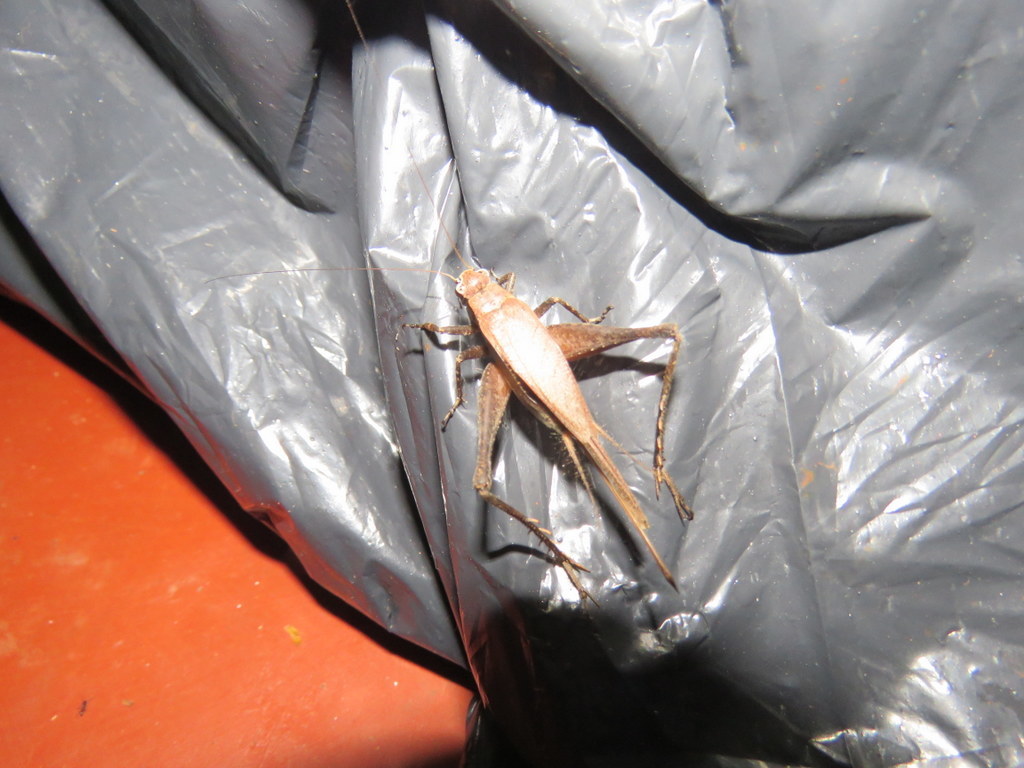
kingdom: Animalia
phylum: Arthropoda
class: Insecta
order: Orthoptera
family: Gryllidae
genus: Eneoptera
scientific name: Eneoptera surinamensis
